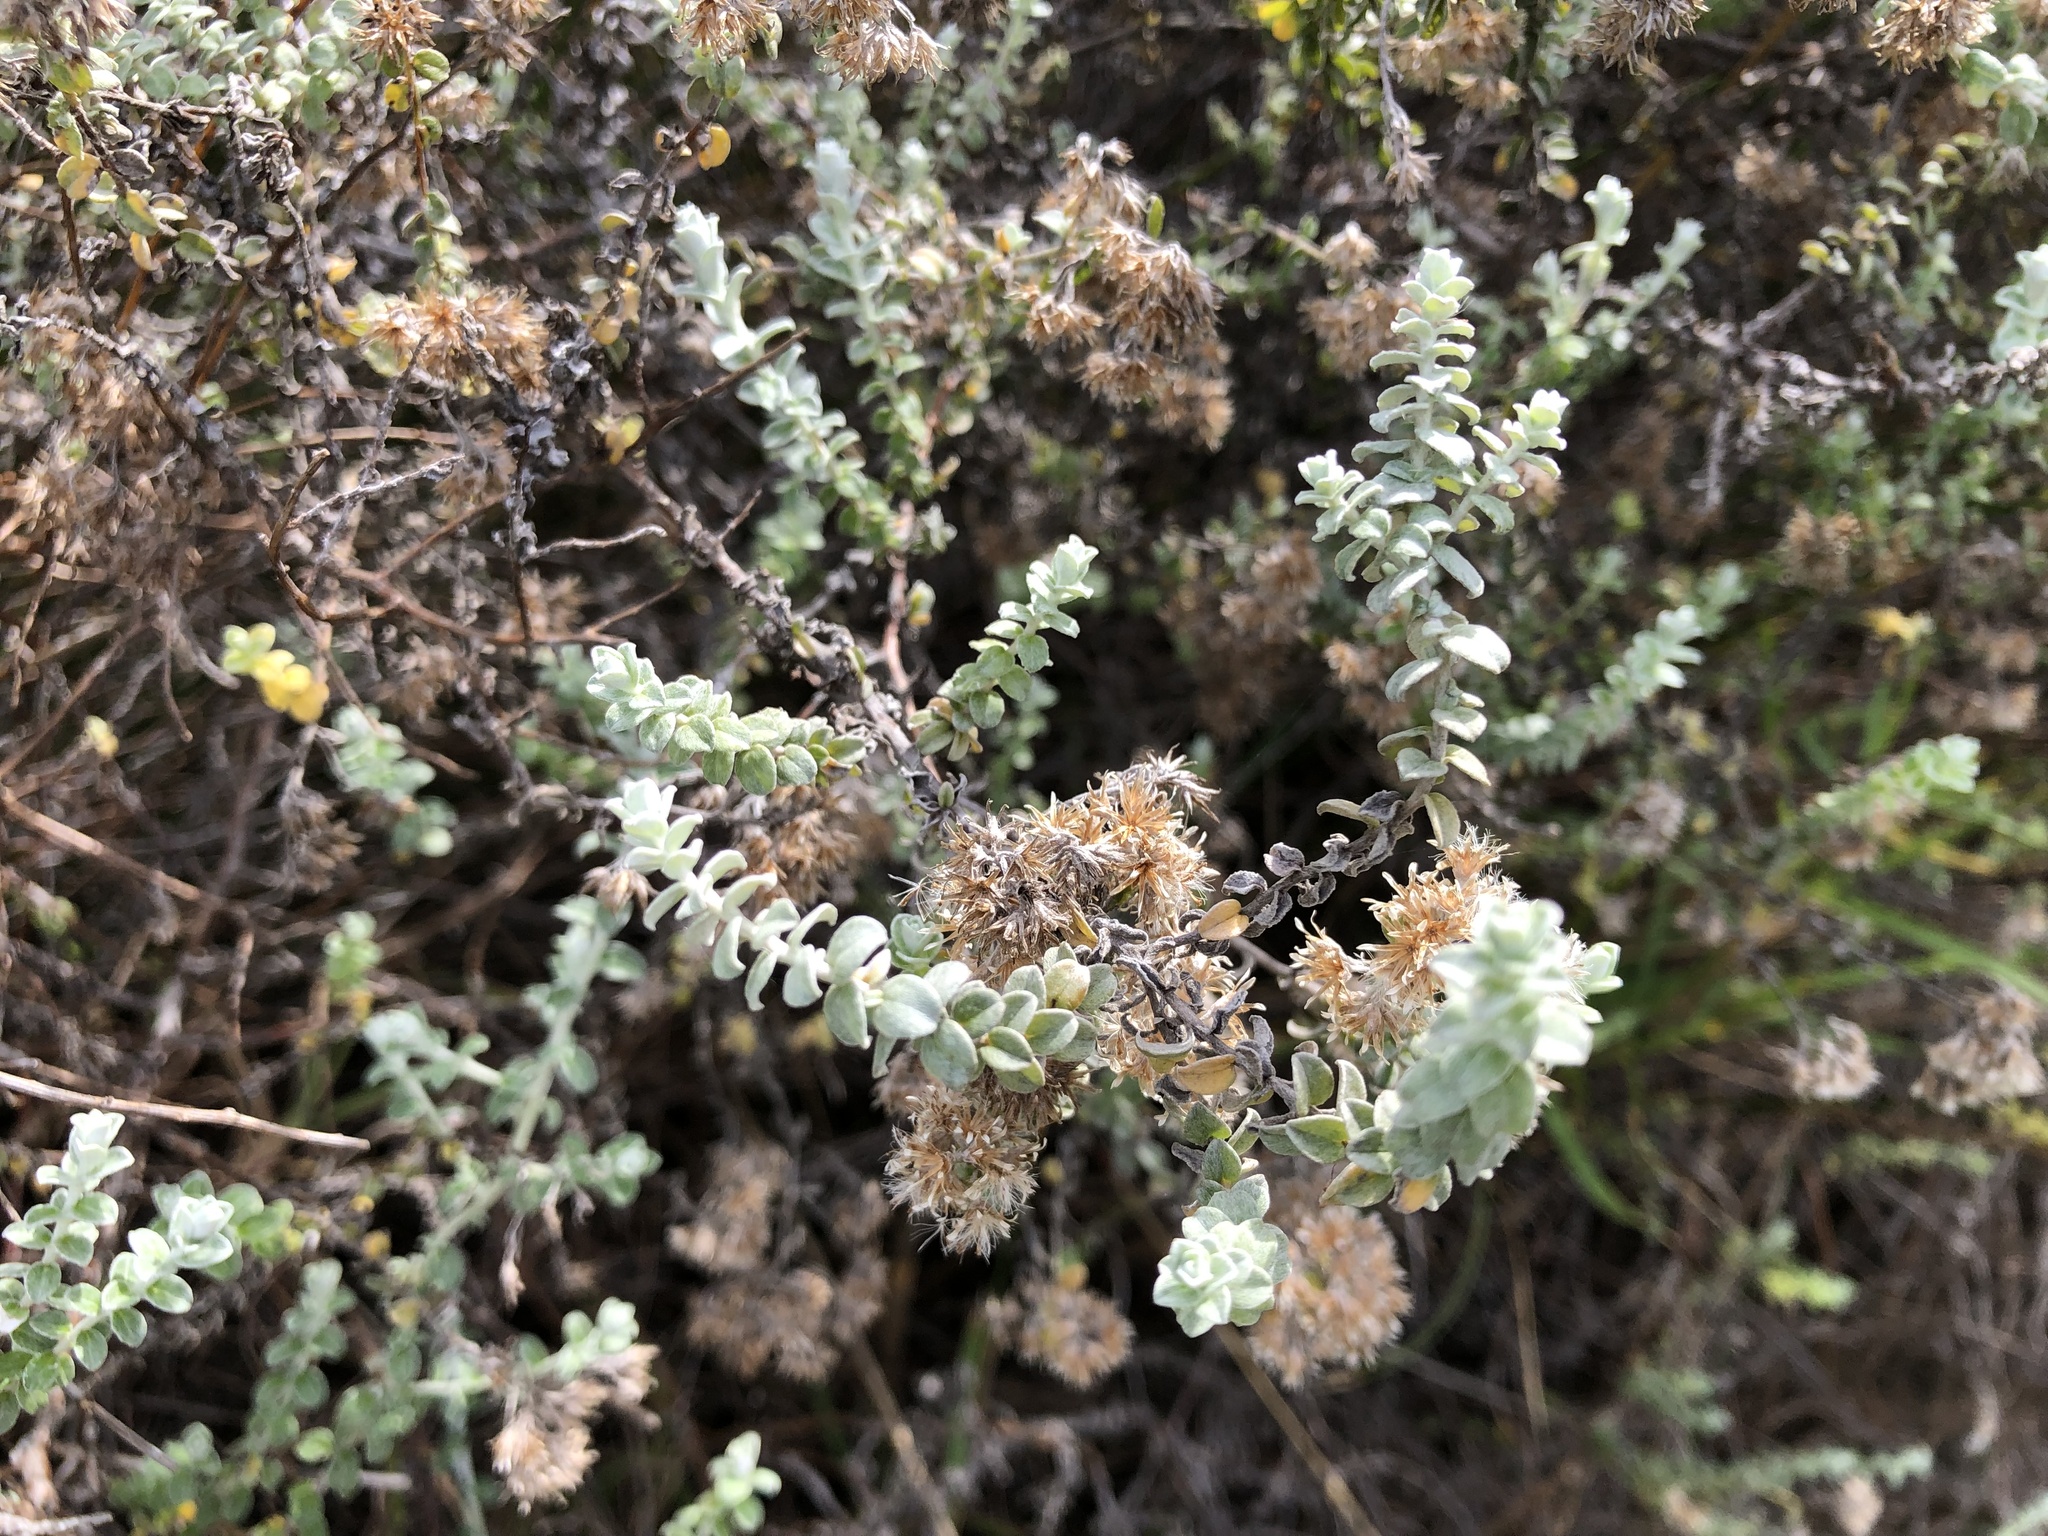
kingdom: Plantae
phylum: Tracheophyta
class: Magnoliopsida
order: Asterales
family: Asteraceae
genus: Plecostachys
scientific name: Plecostachys serpyllifolia
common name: Petite licorice
